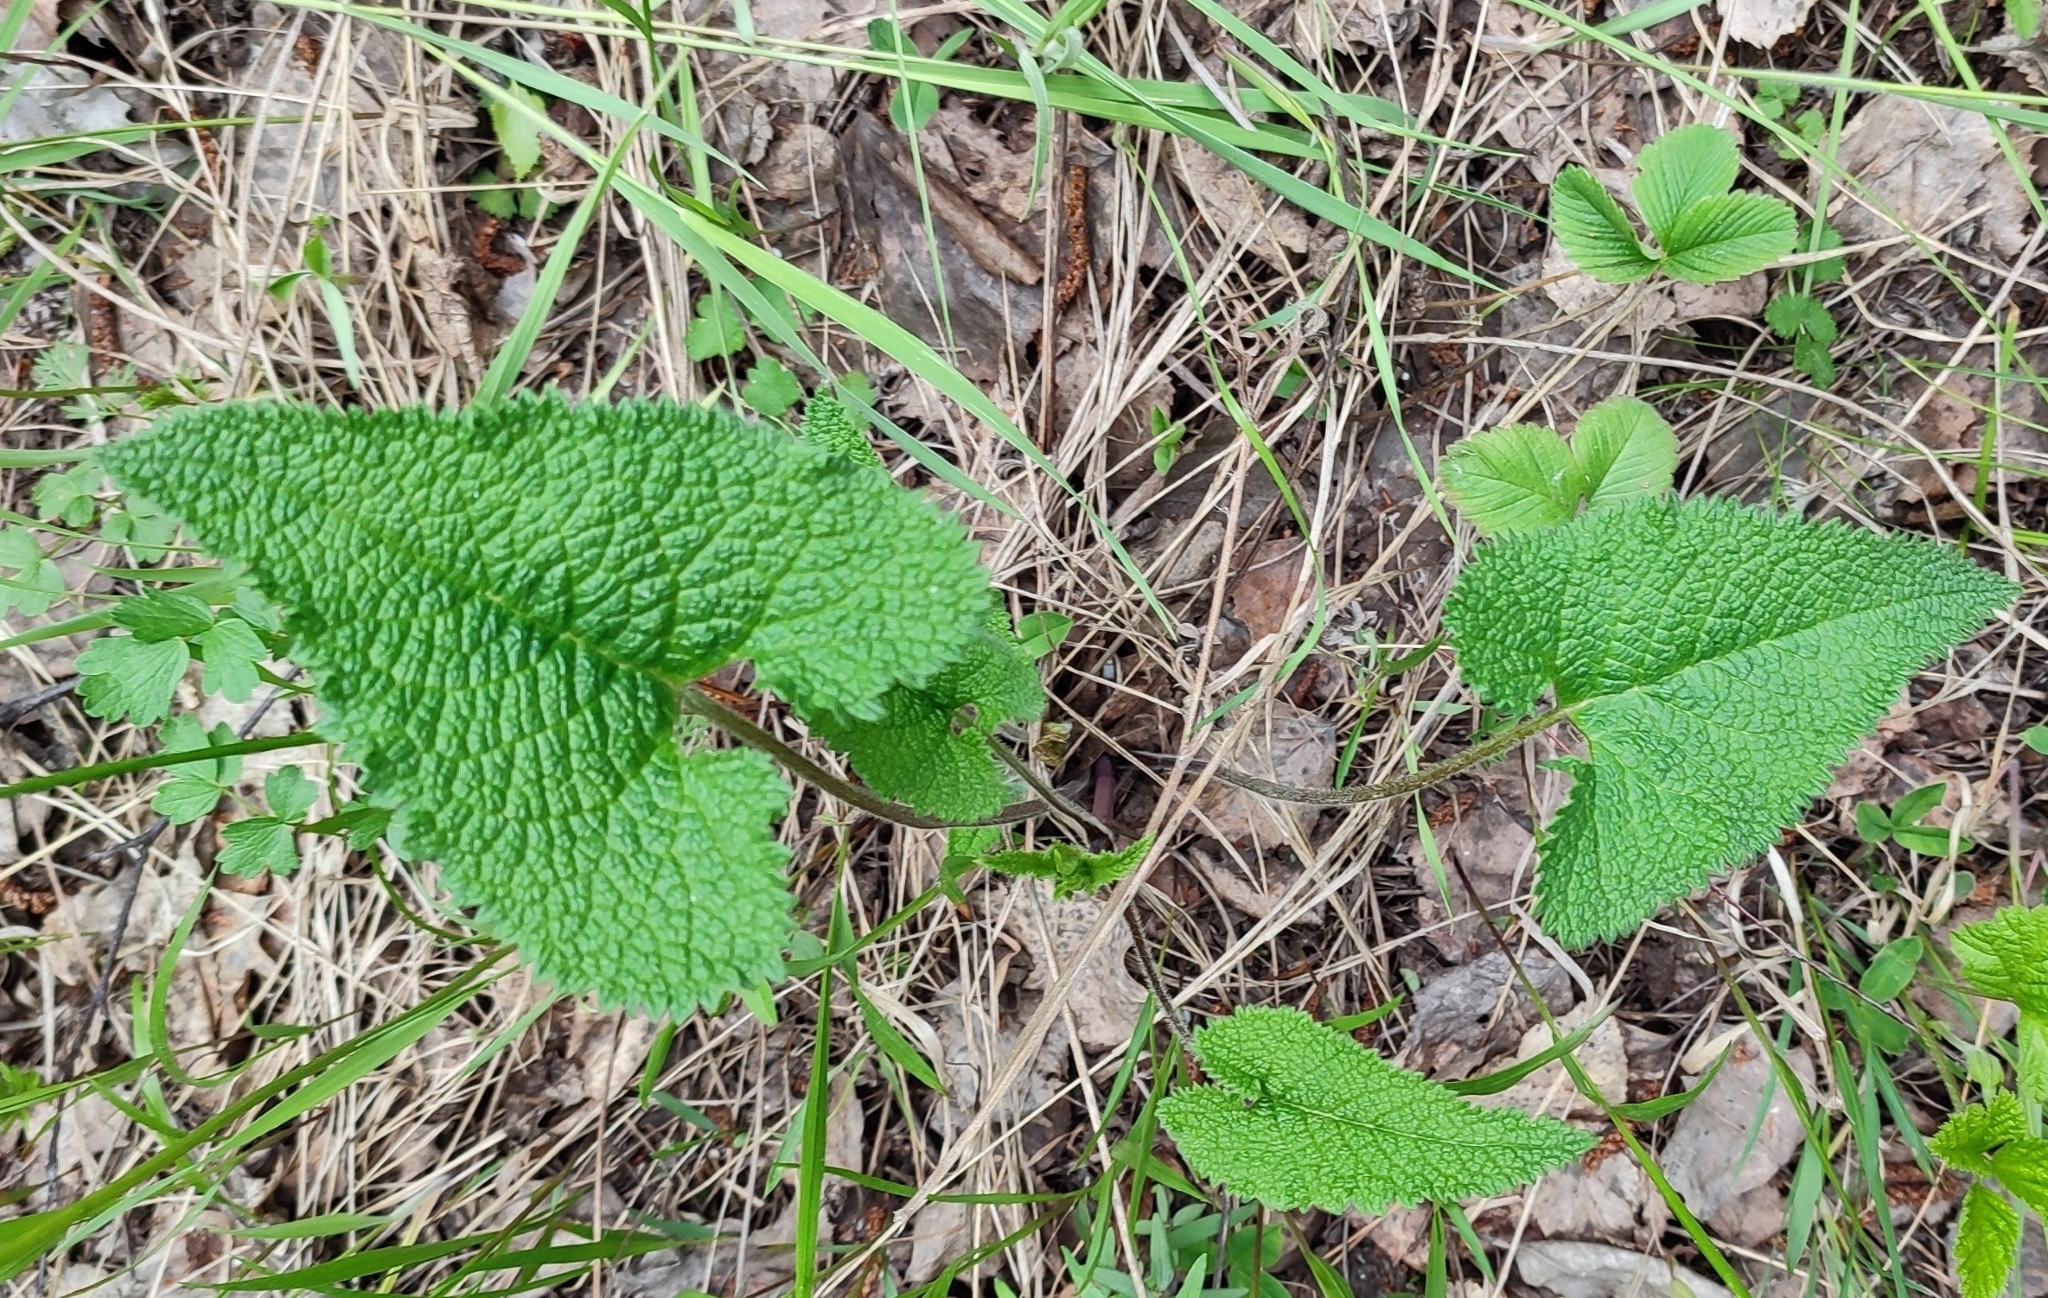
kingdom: Plantae
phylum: Tracheophyta
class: Magnoliopsida
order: Lamiales
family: Lamiaceae
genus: Phlomoides
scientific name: Phlomoides tuberosa
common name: Tuberous jerusalem sage
